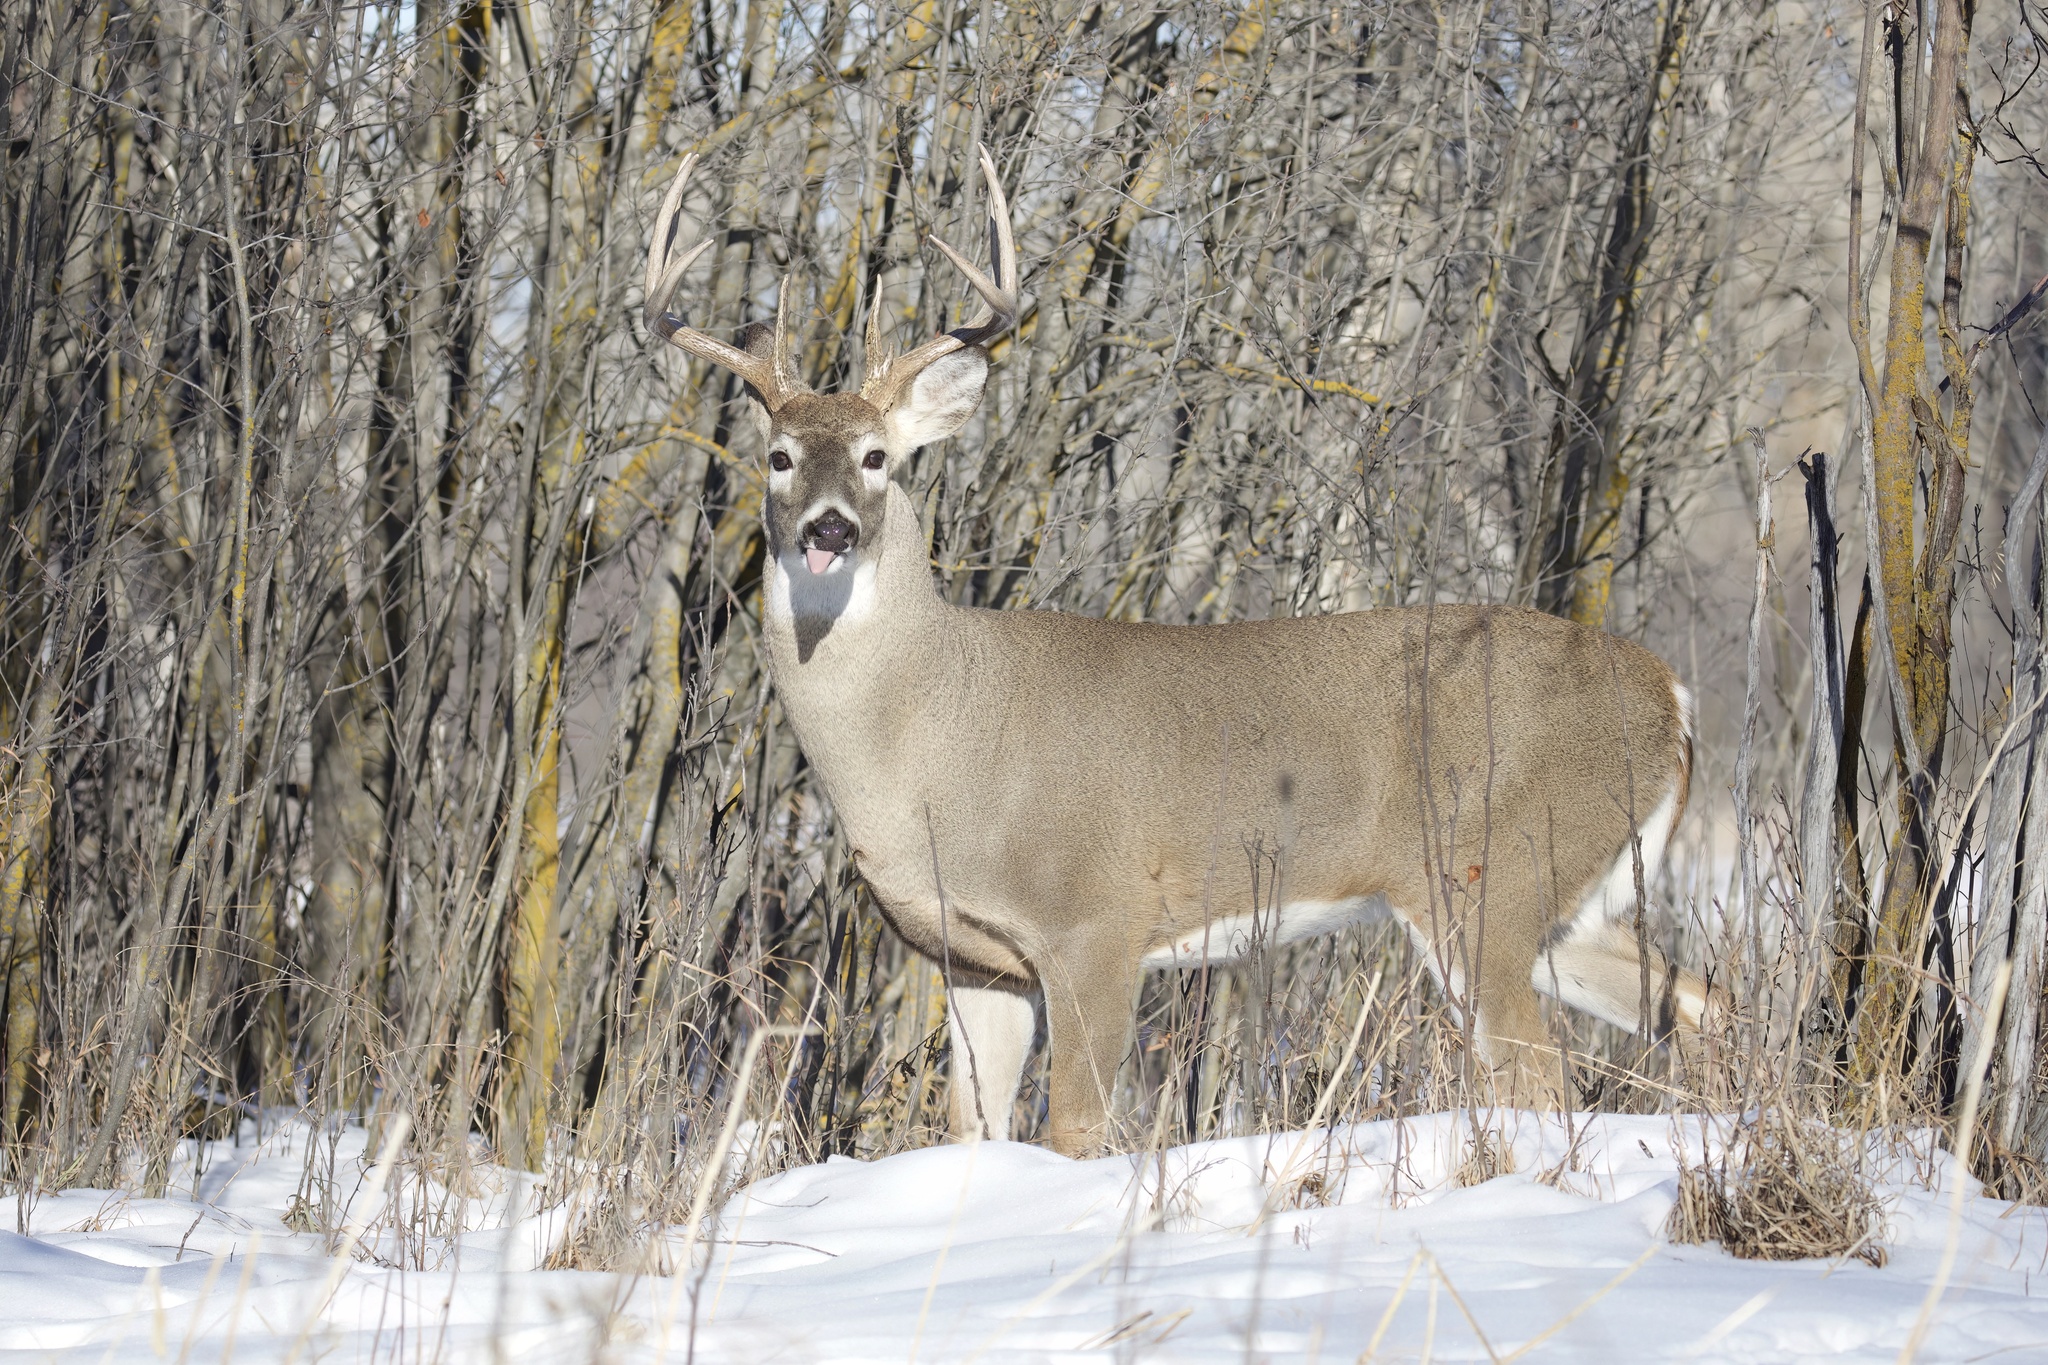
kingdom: Animalia
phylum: Chordata
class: Mammalia
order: Artiodactyla
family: Cervidae
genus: Odocoileus
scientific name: Odocoileus virginianus
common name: White-tailed deer
